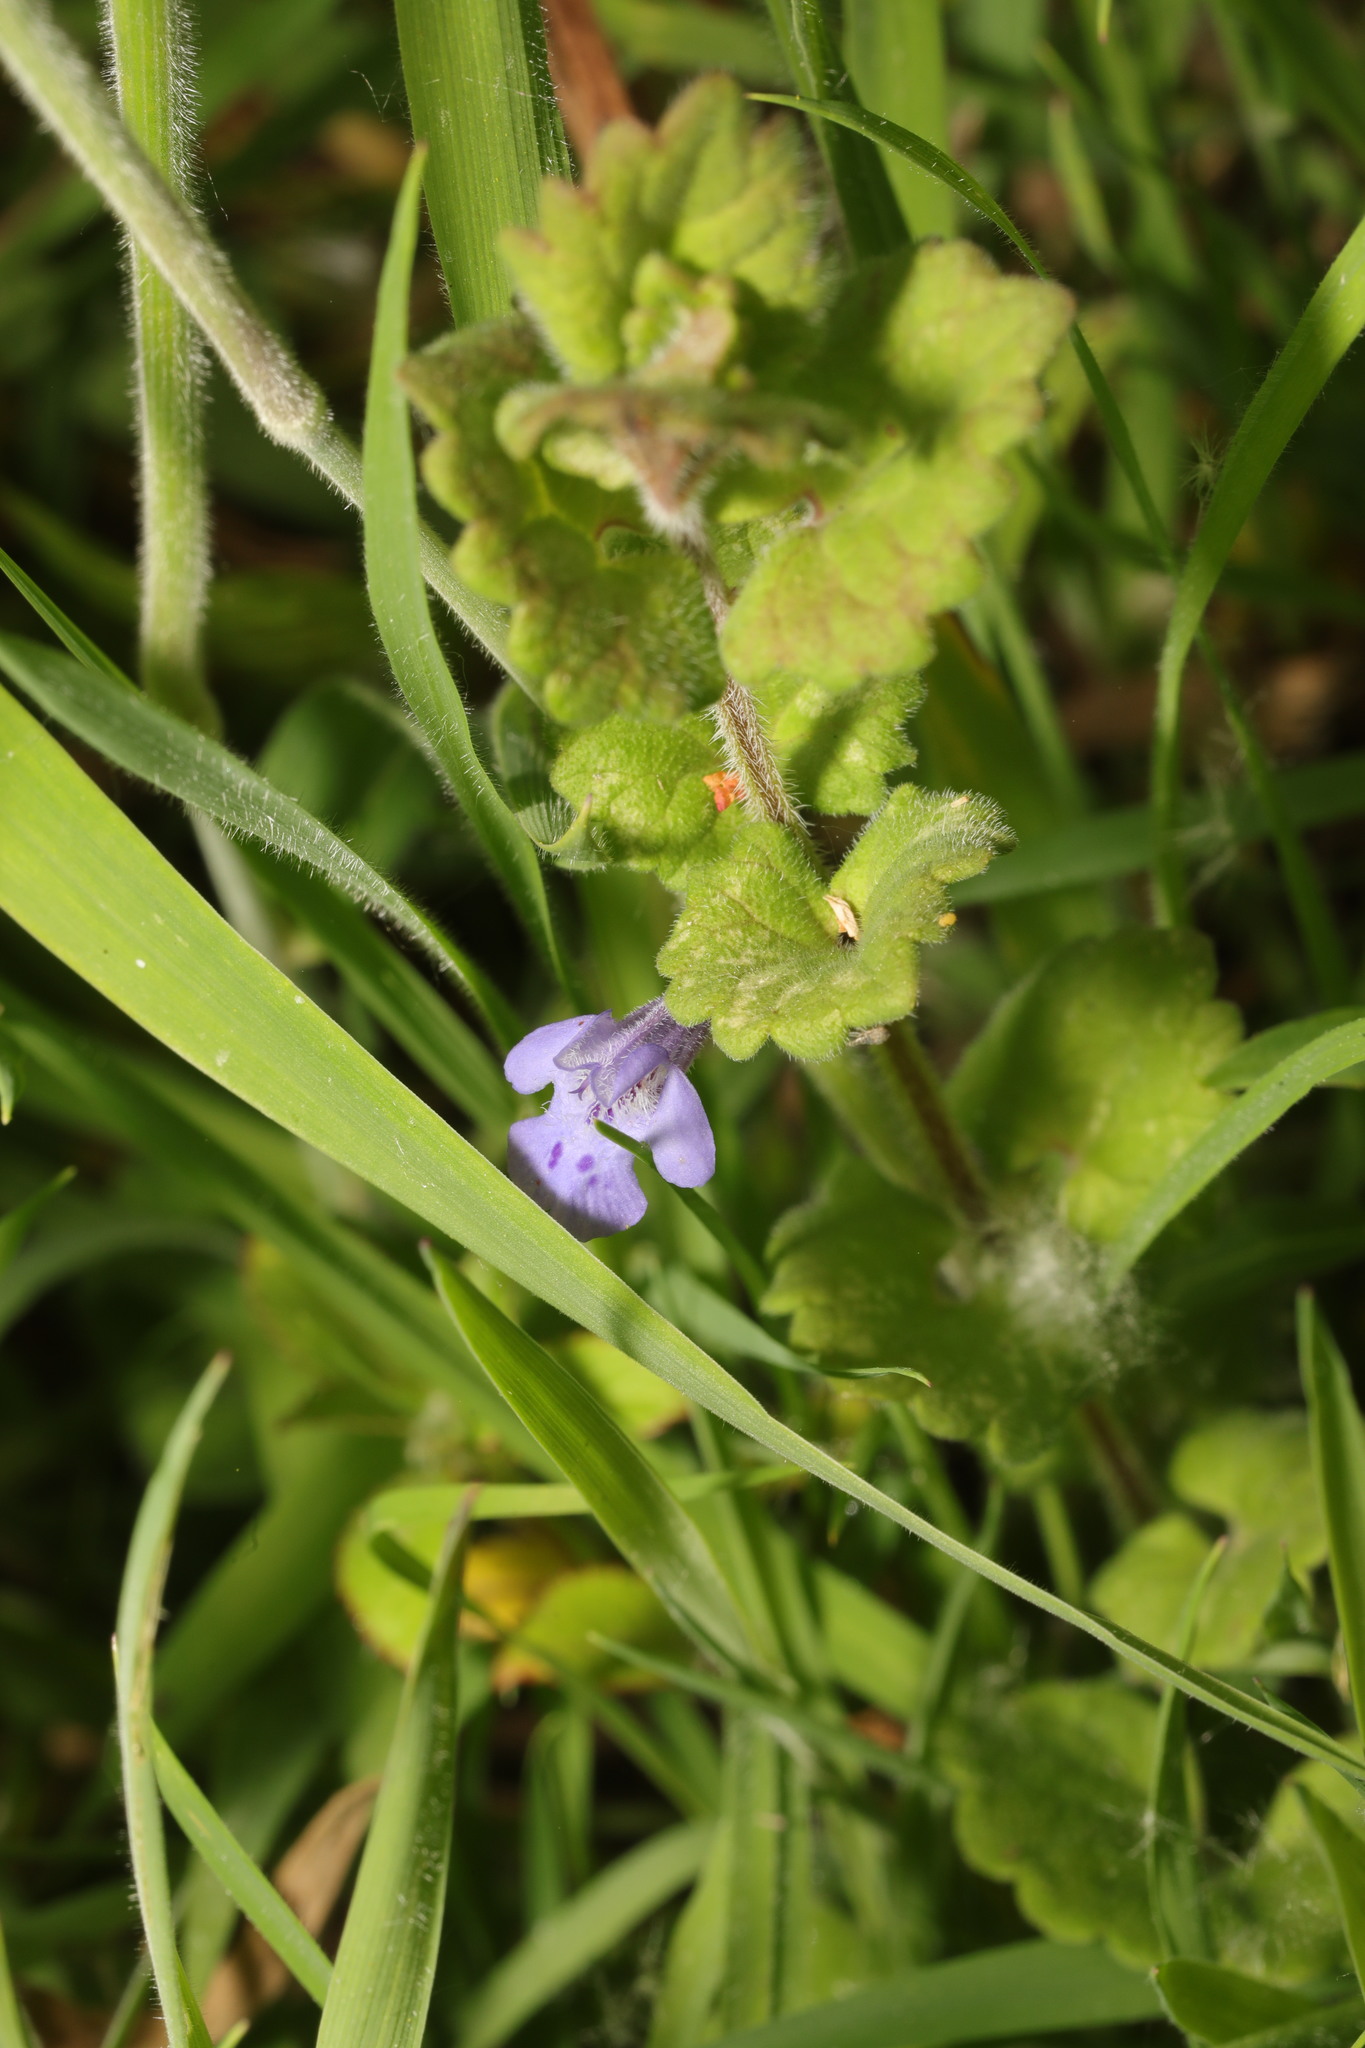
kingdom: Plantae
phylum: Tracheophyta
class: Magnoliopsida
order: Lamiales
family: Lamiaceae
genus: Glechoma
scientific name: Glechoma hederacea
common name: Ground ivy
